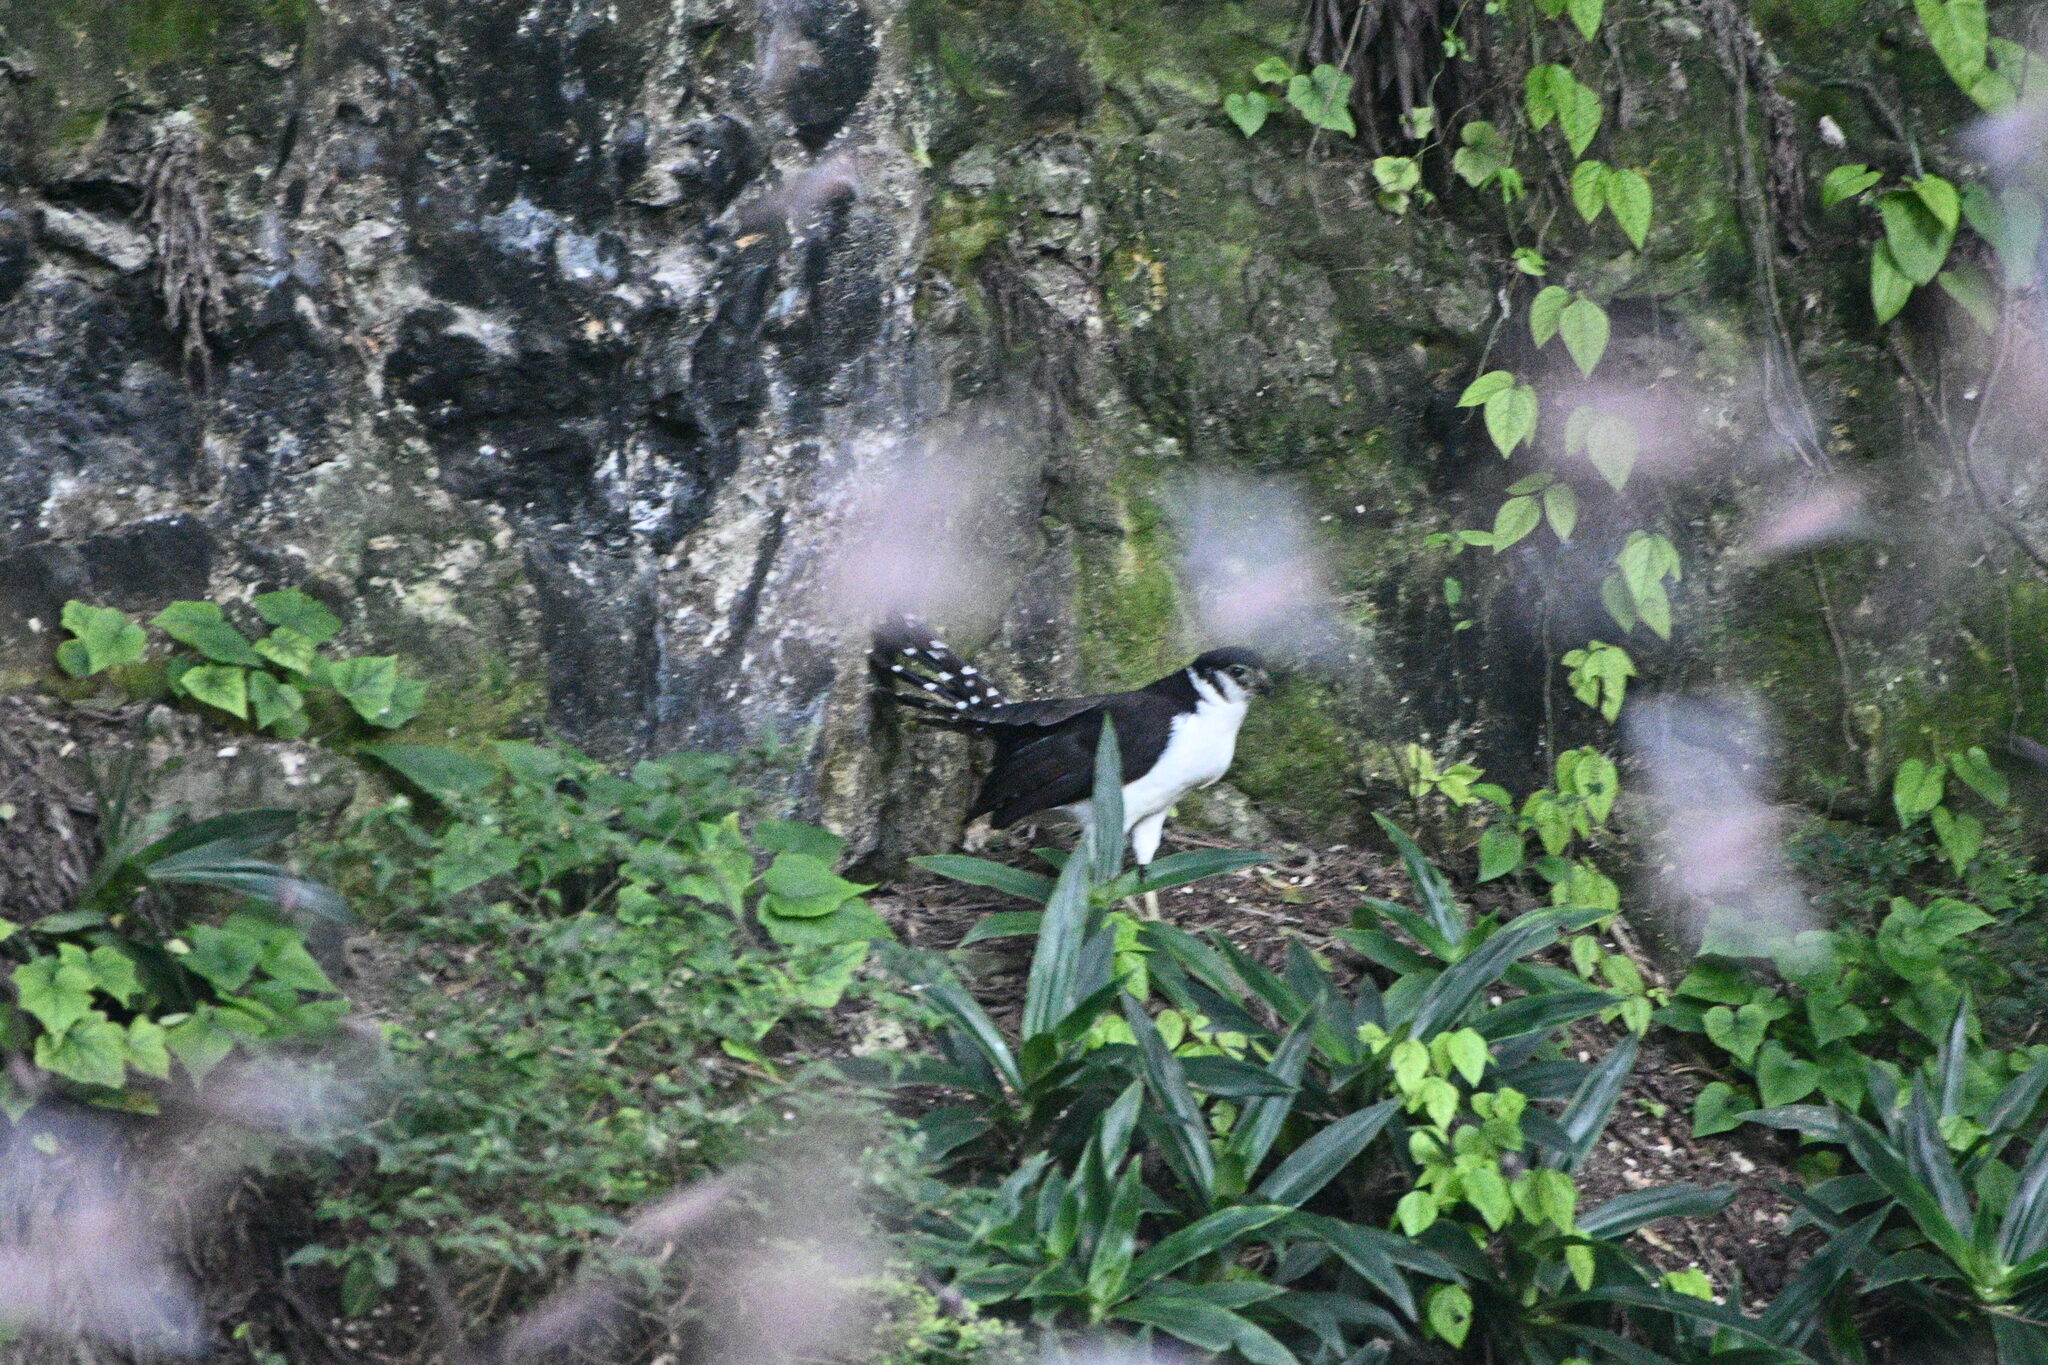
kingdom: Animalia
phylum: Chordata
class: Aves
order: Falconiformes
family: Falconidae
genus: Micrastur
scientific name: Micrastur semitorquatus
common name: Collared forest-falcon
